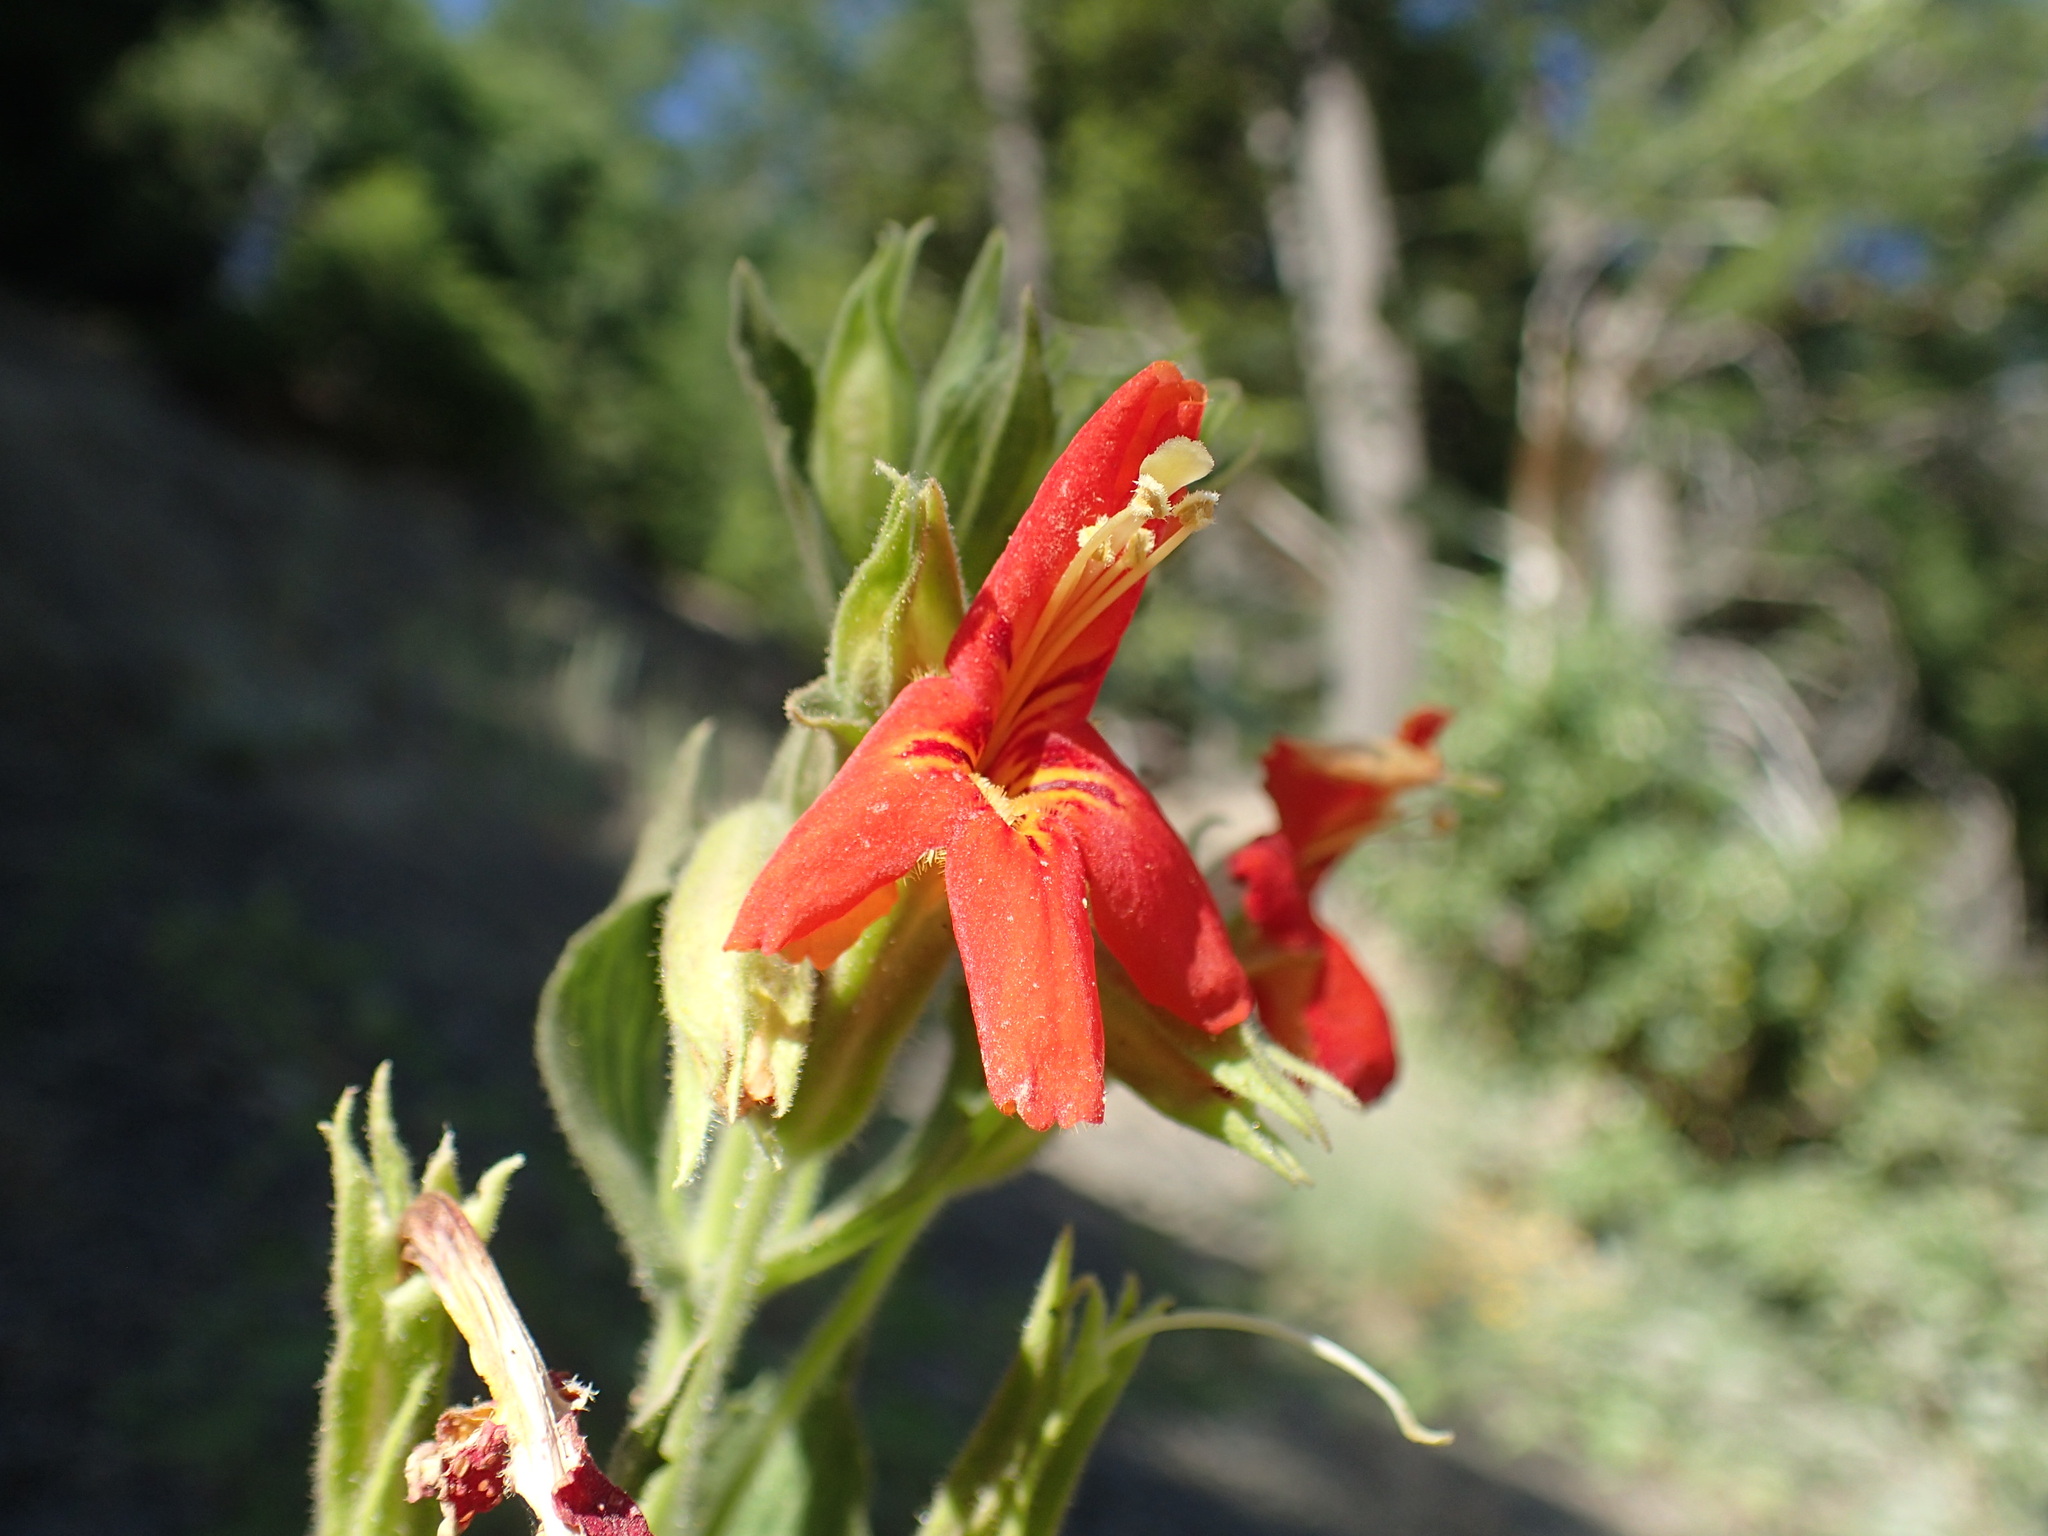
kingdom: Plantae
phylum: Tracheophyta
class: Magnoliopsida
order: Lamiales
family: Phrymaceae
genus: Erythranthe
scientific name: Erythranthe cardinalis
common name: Scarlet monkey-flower
